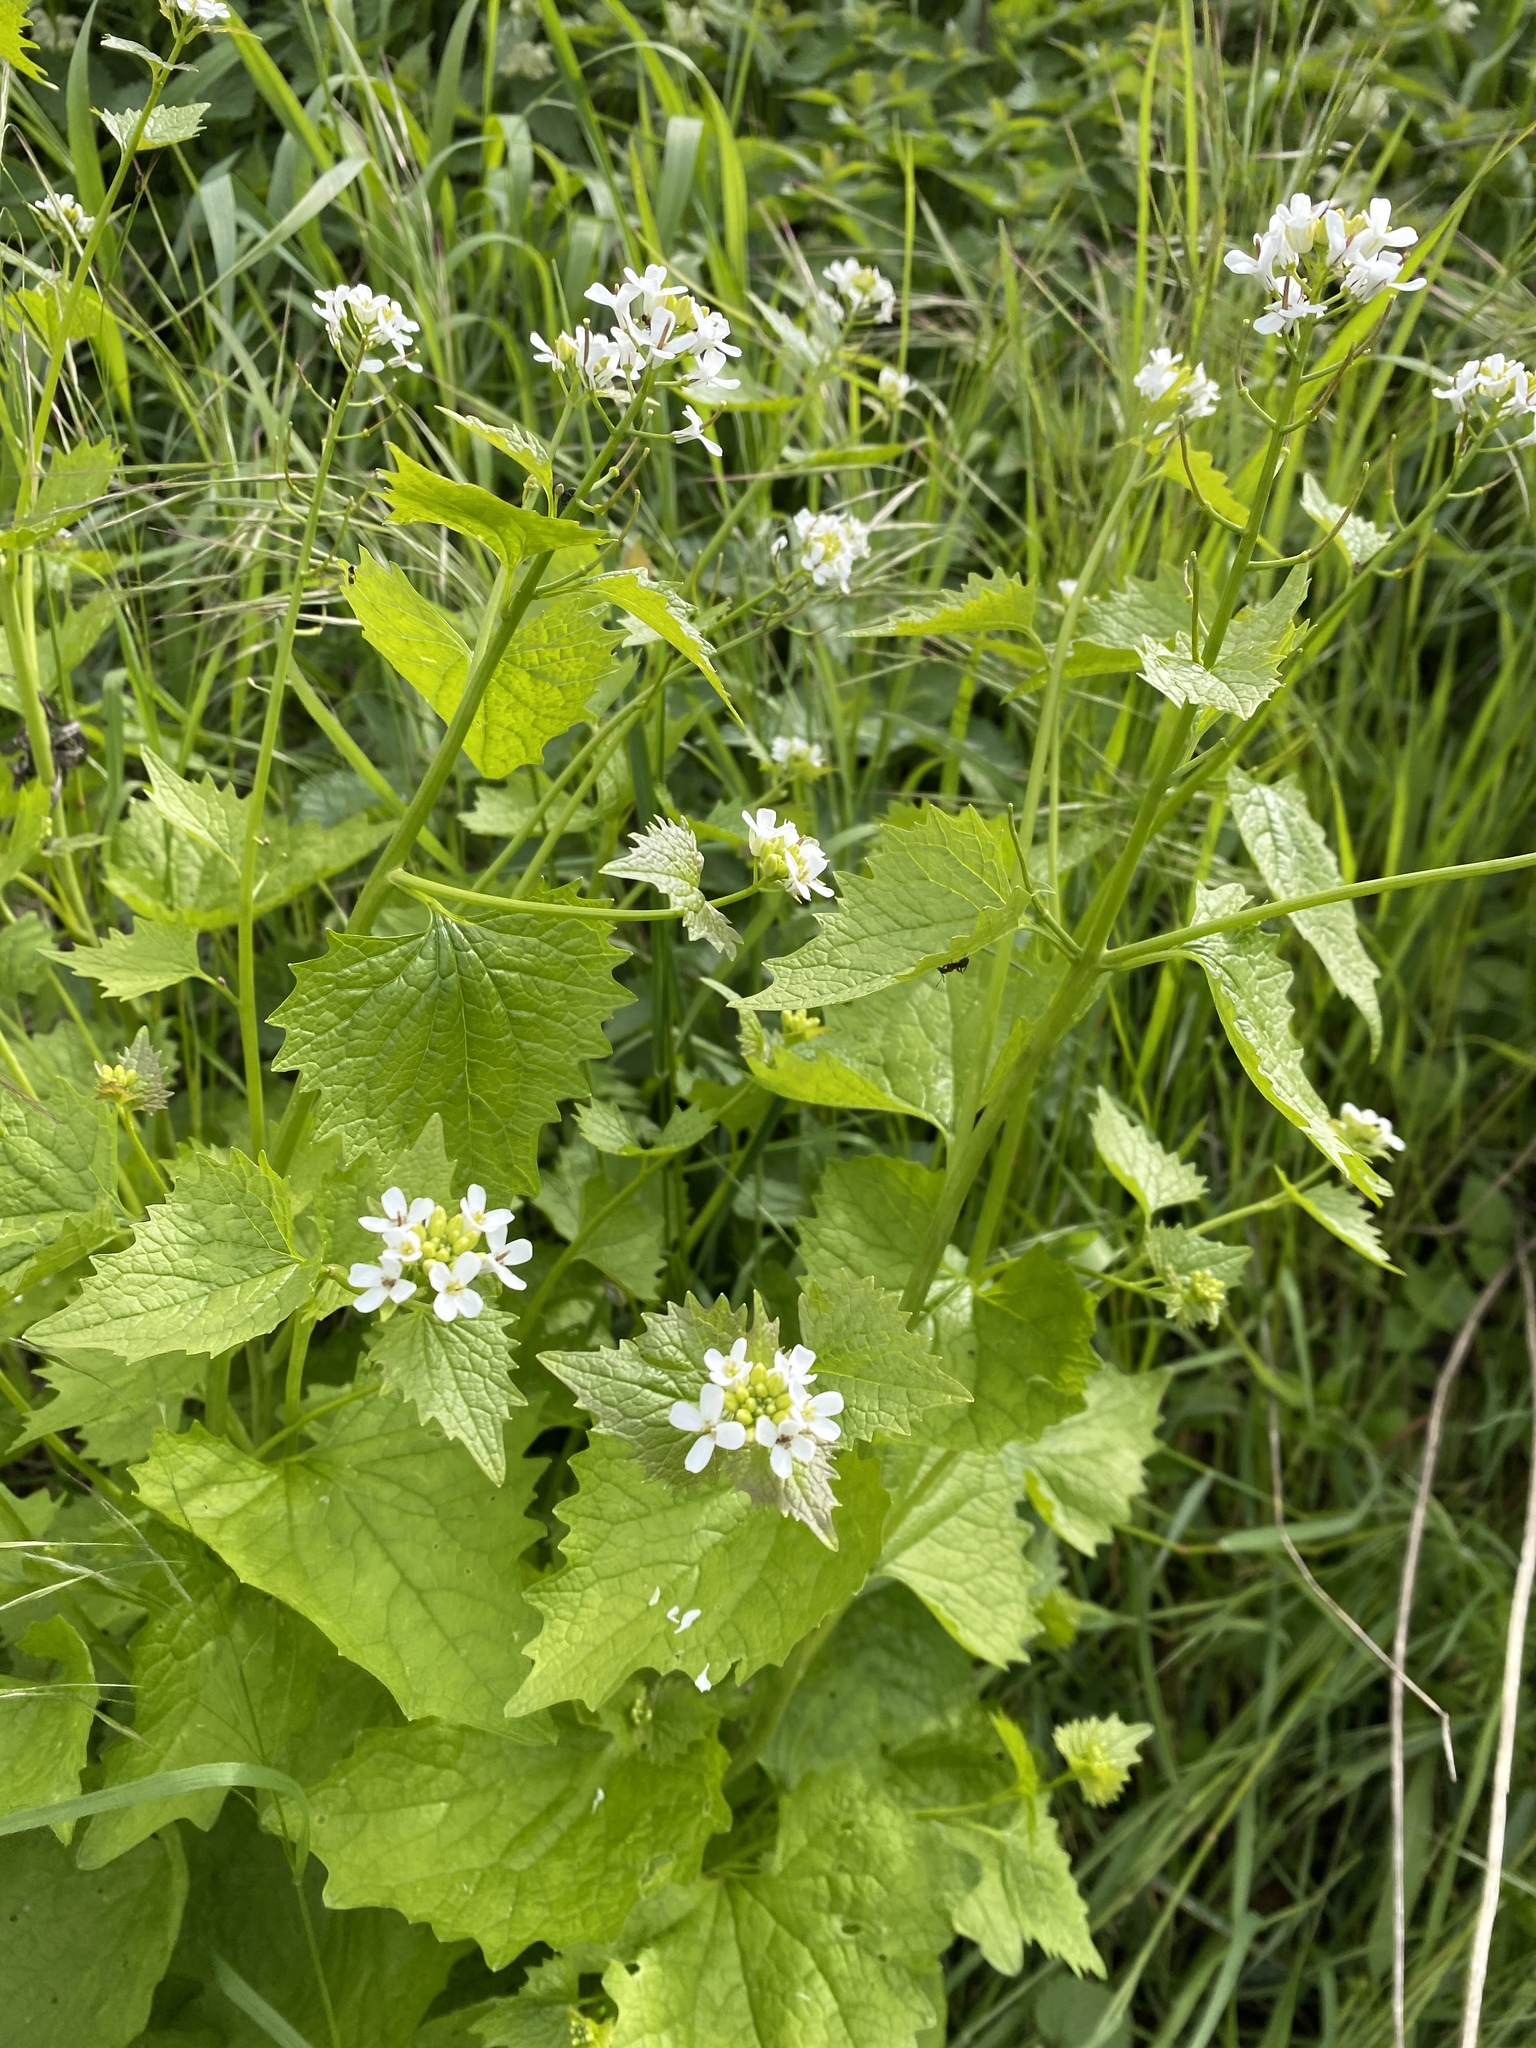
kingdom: Plantae
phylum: Tracheophyta
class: Magnoliopsida
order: Brassicales
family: Brassicaceae
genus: Alliaria
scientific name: Alliaria petiolata
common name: Garlic mustard
